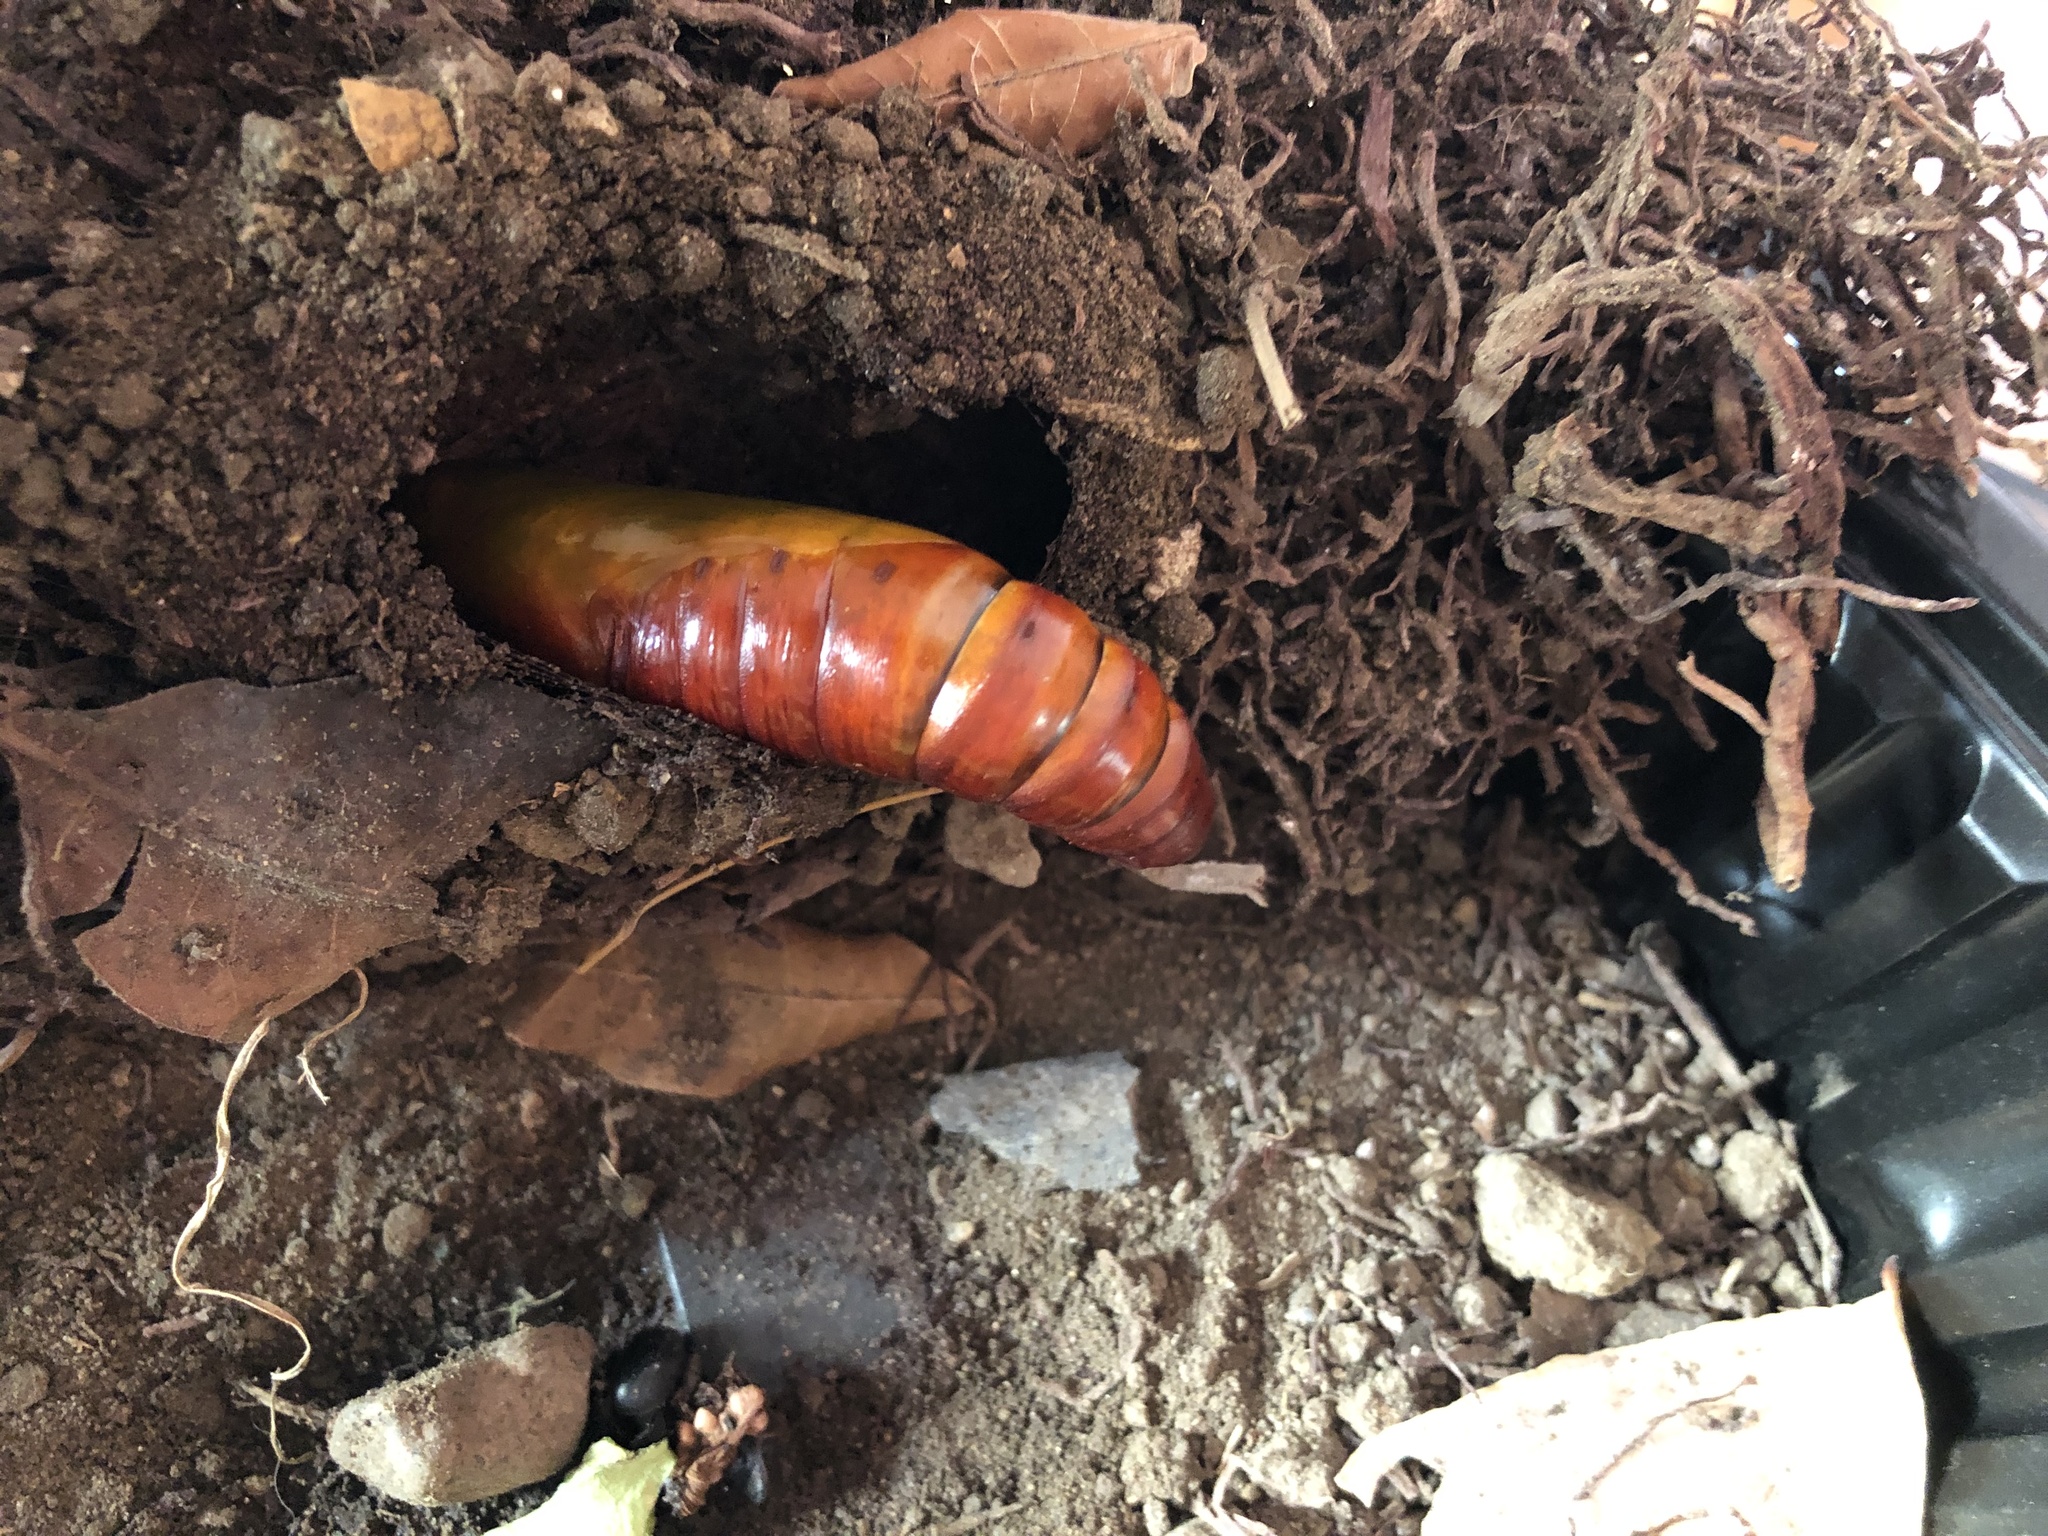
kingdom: Animalia
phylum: Arthropoda
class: Insecta
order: Lepidoptera
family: Sphingidae
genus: Pachylia
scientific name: Pachylia ficus
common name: Fig sphinx
